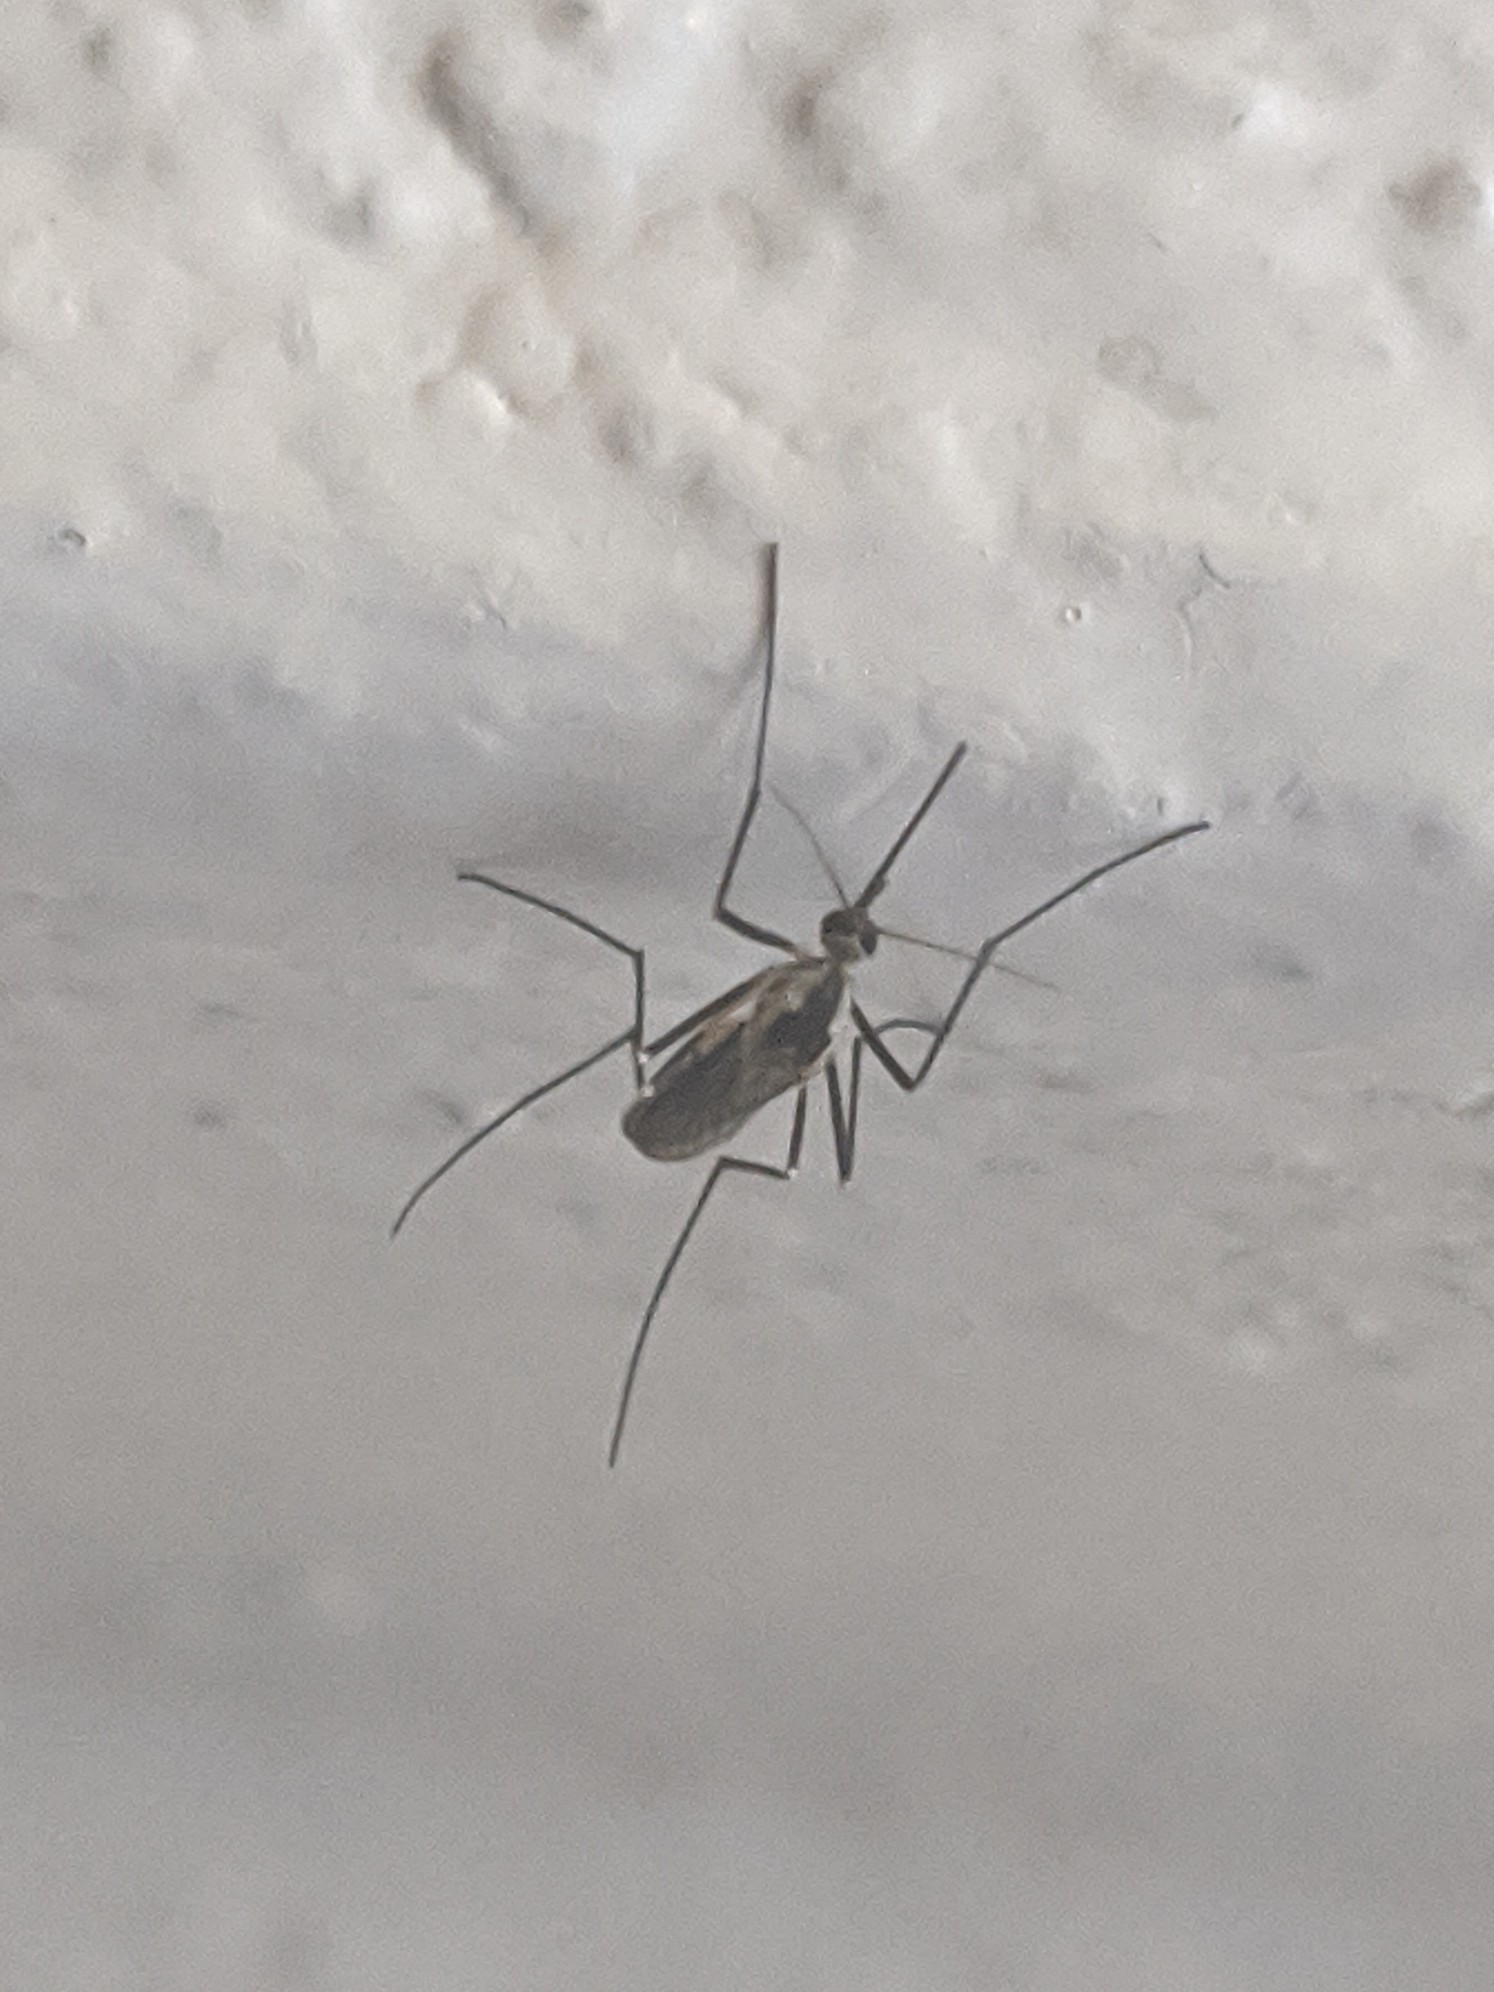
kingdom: Animalia
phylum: Arthropoda
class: Insecta
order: Diptera
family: Culicidae
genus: Aedes
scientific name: Aedes hendersoni
